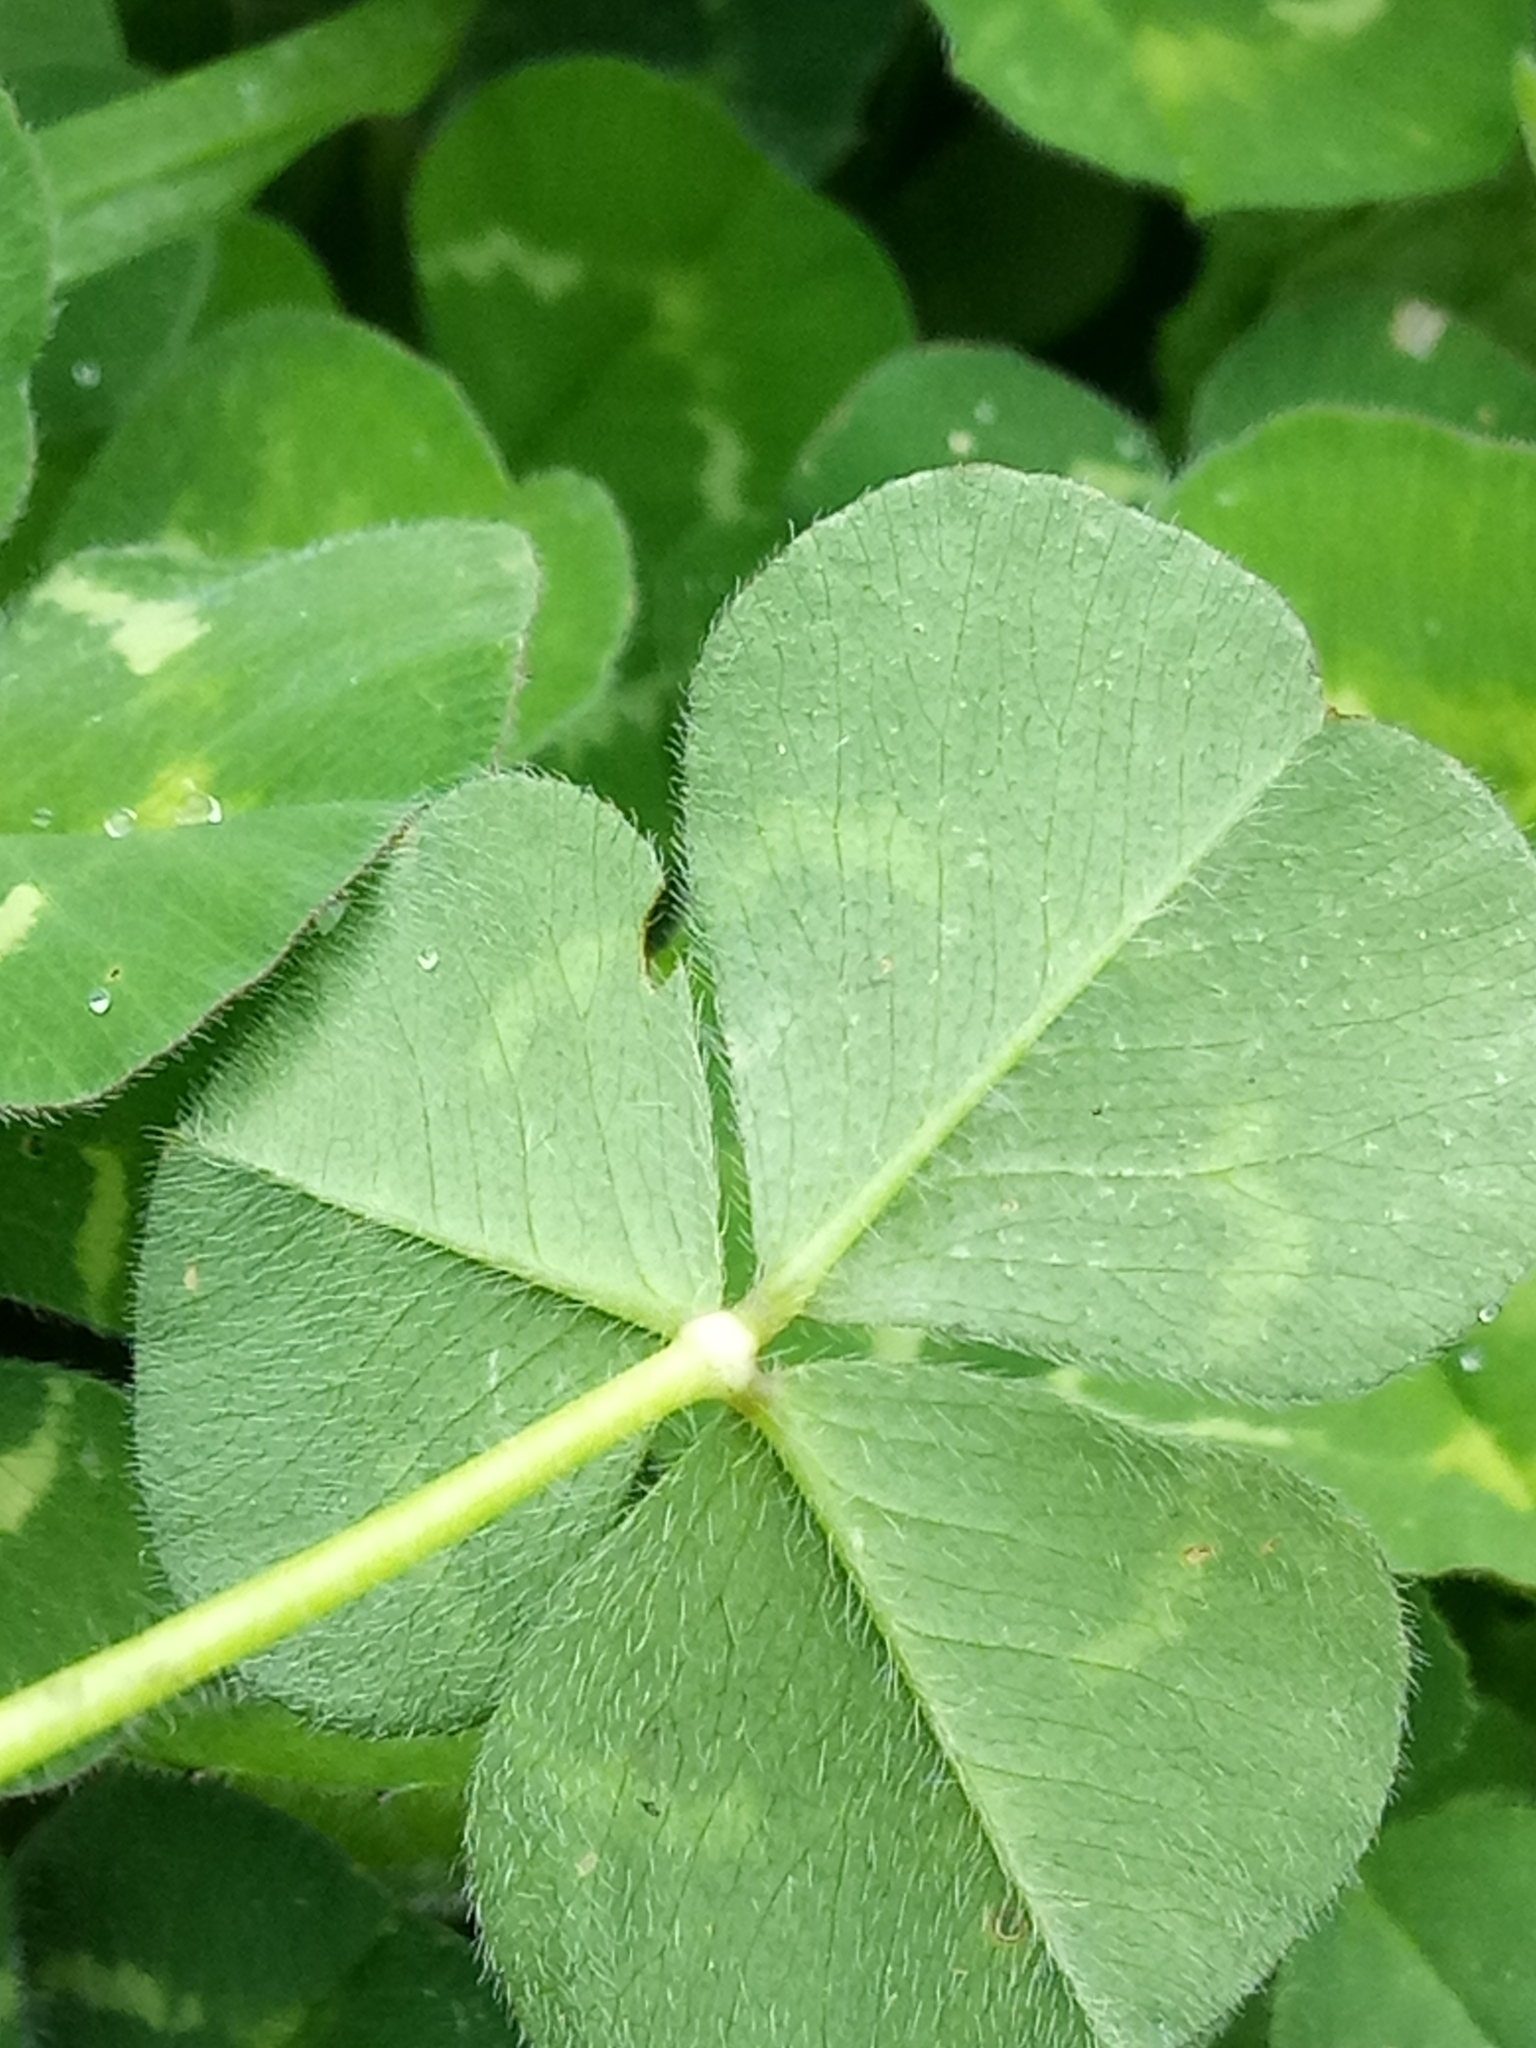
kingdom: Plantae
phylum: Tracheophyta
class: Magnoliopsida
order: Fabales
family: Fabaceae
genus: Trifolium
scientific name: Trifolium subterraneum
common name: Subterranean clover
